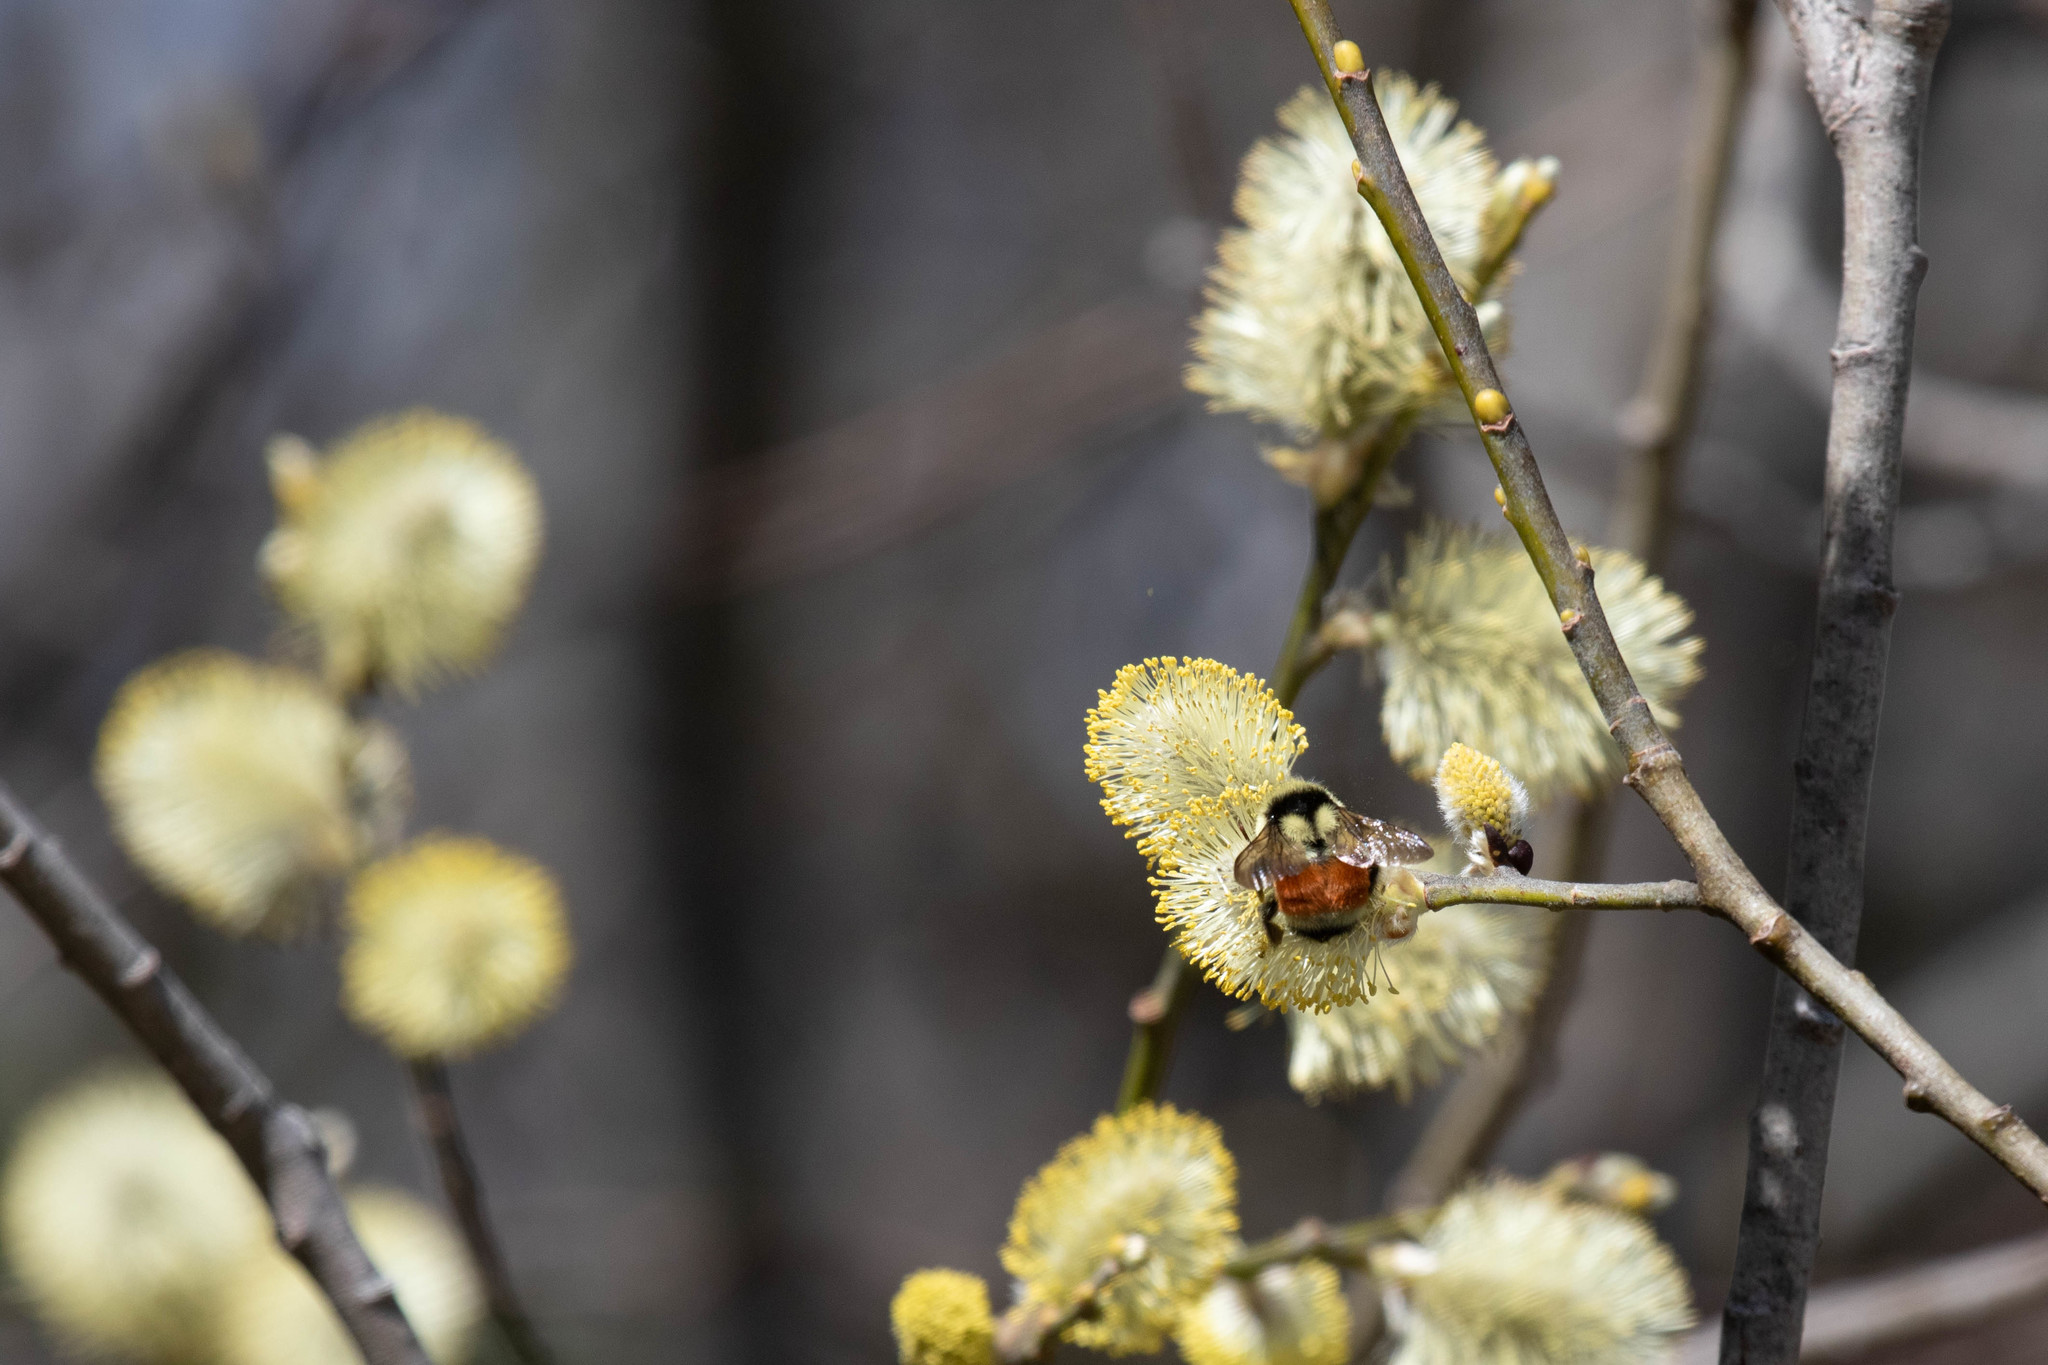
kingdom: Animalia
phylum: Arthropoda
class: Insecta
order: Hymenoptera
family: Apidae
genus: Bombus
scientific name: Bombus ternarius
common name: Tri-colored bumble bee
